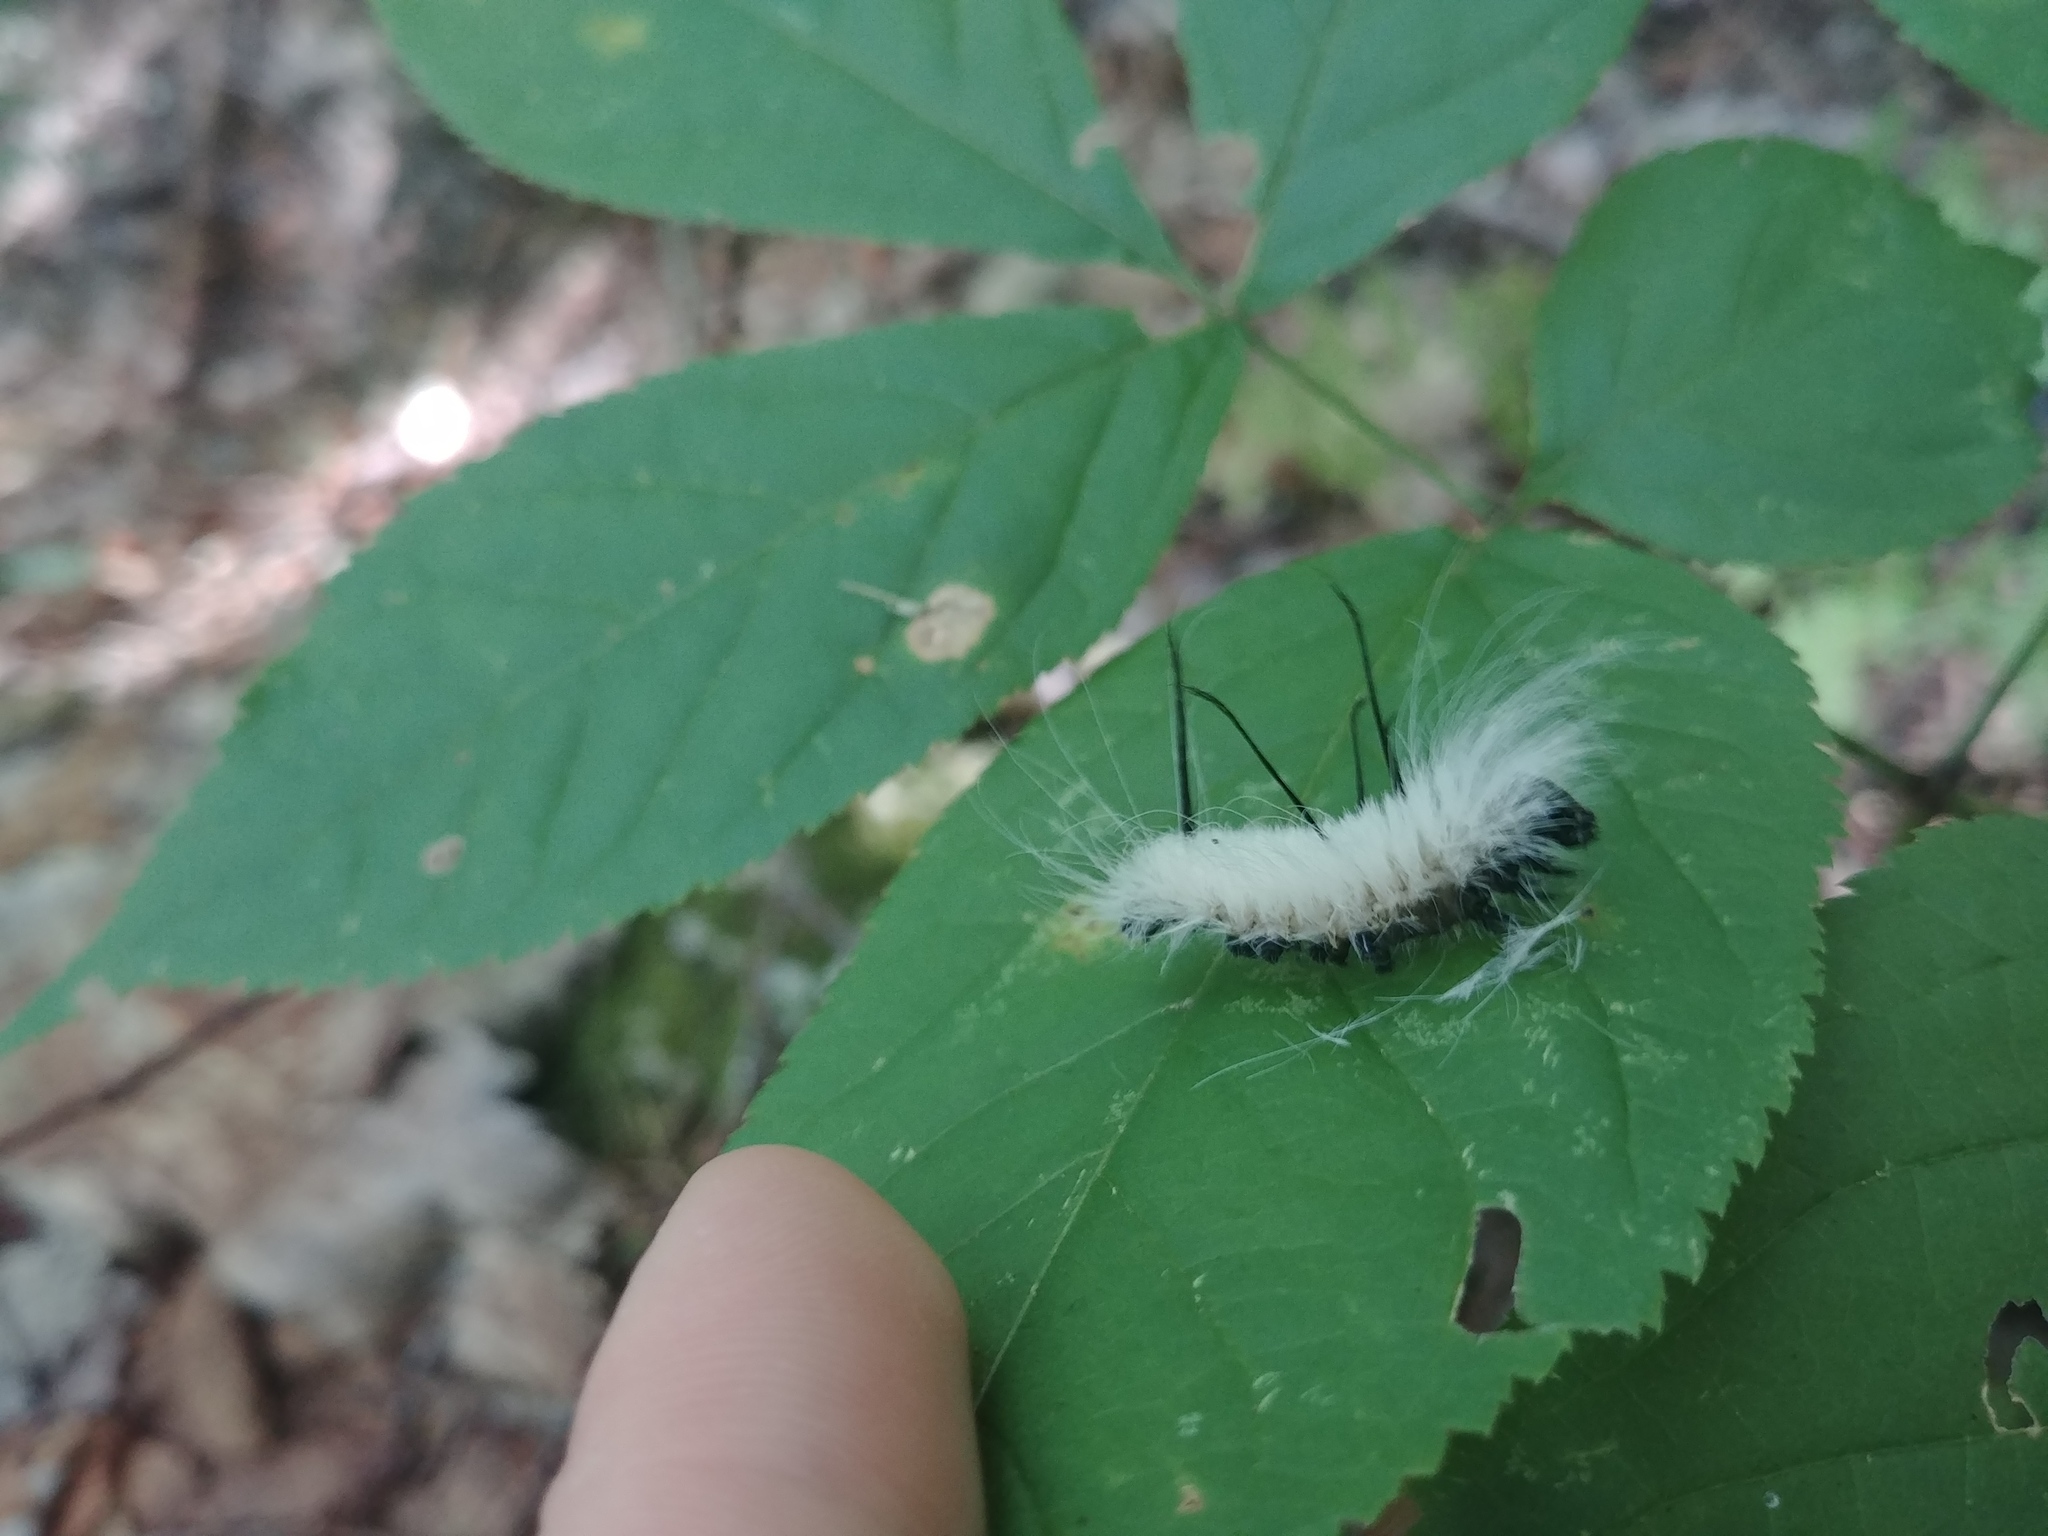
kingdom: Animalia
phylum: Arthropoda
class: Insecta
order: Lepidoptera
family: Noctuidae
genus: Acronicta
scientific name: Acronicta americana
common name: American dagger
